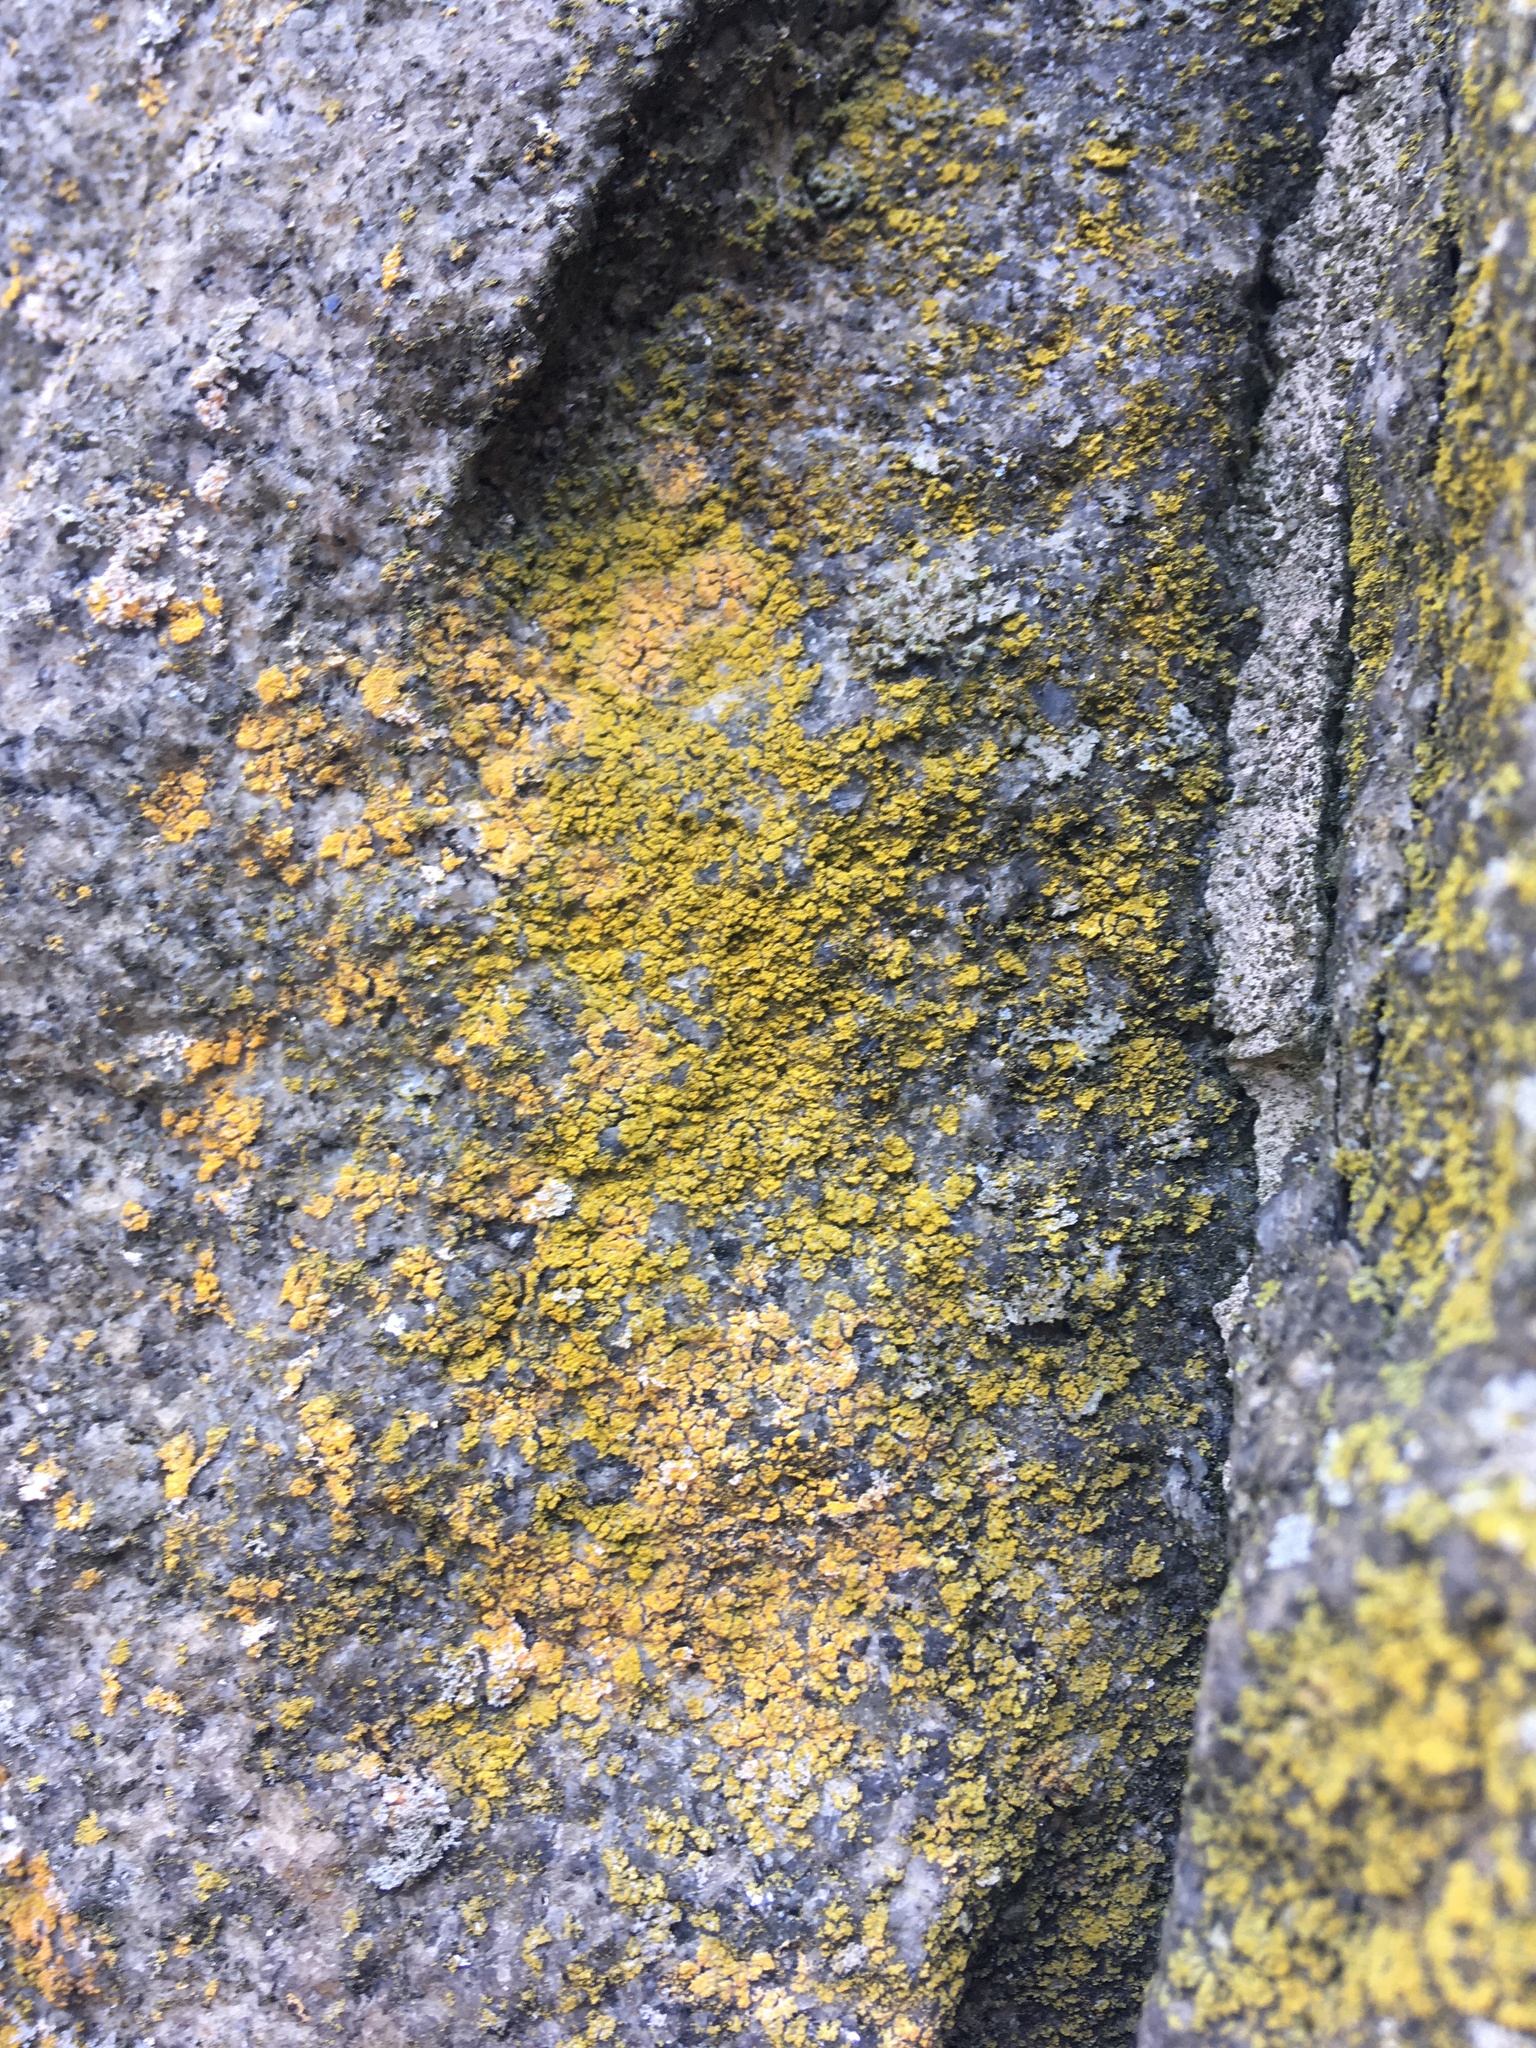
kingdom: Fungi
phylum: Ascomycota
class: Candelariomycetes
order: Candelariales
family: Candelariaceae
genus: Candelaria
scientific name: Candelaria concolor
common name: Candleflame lichen
